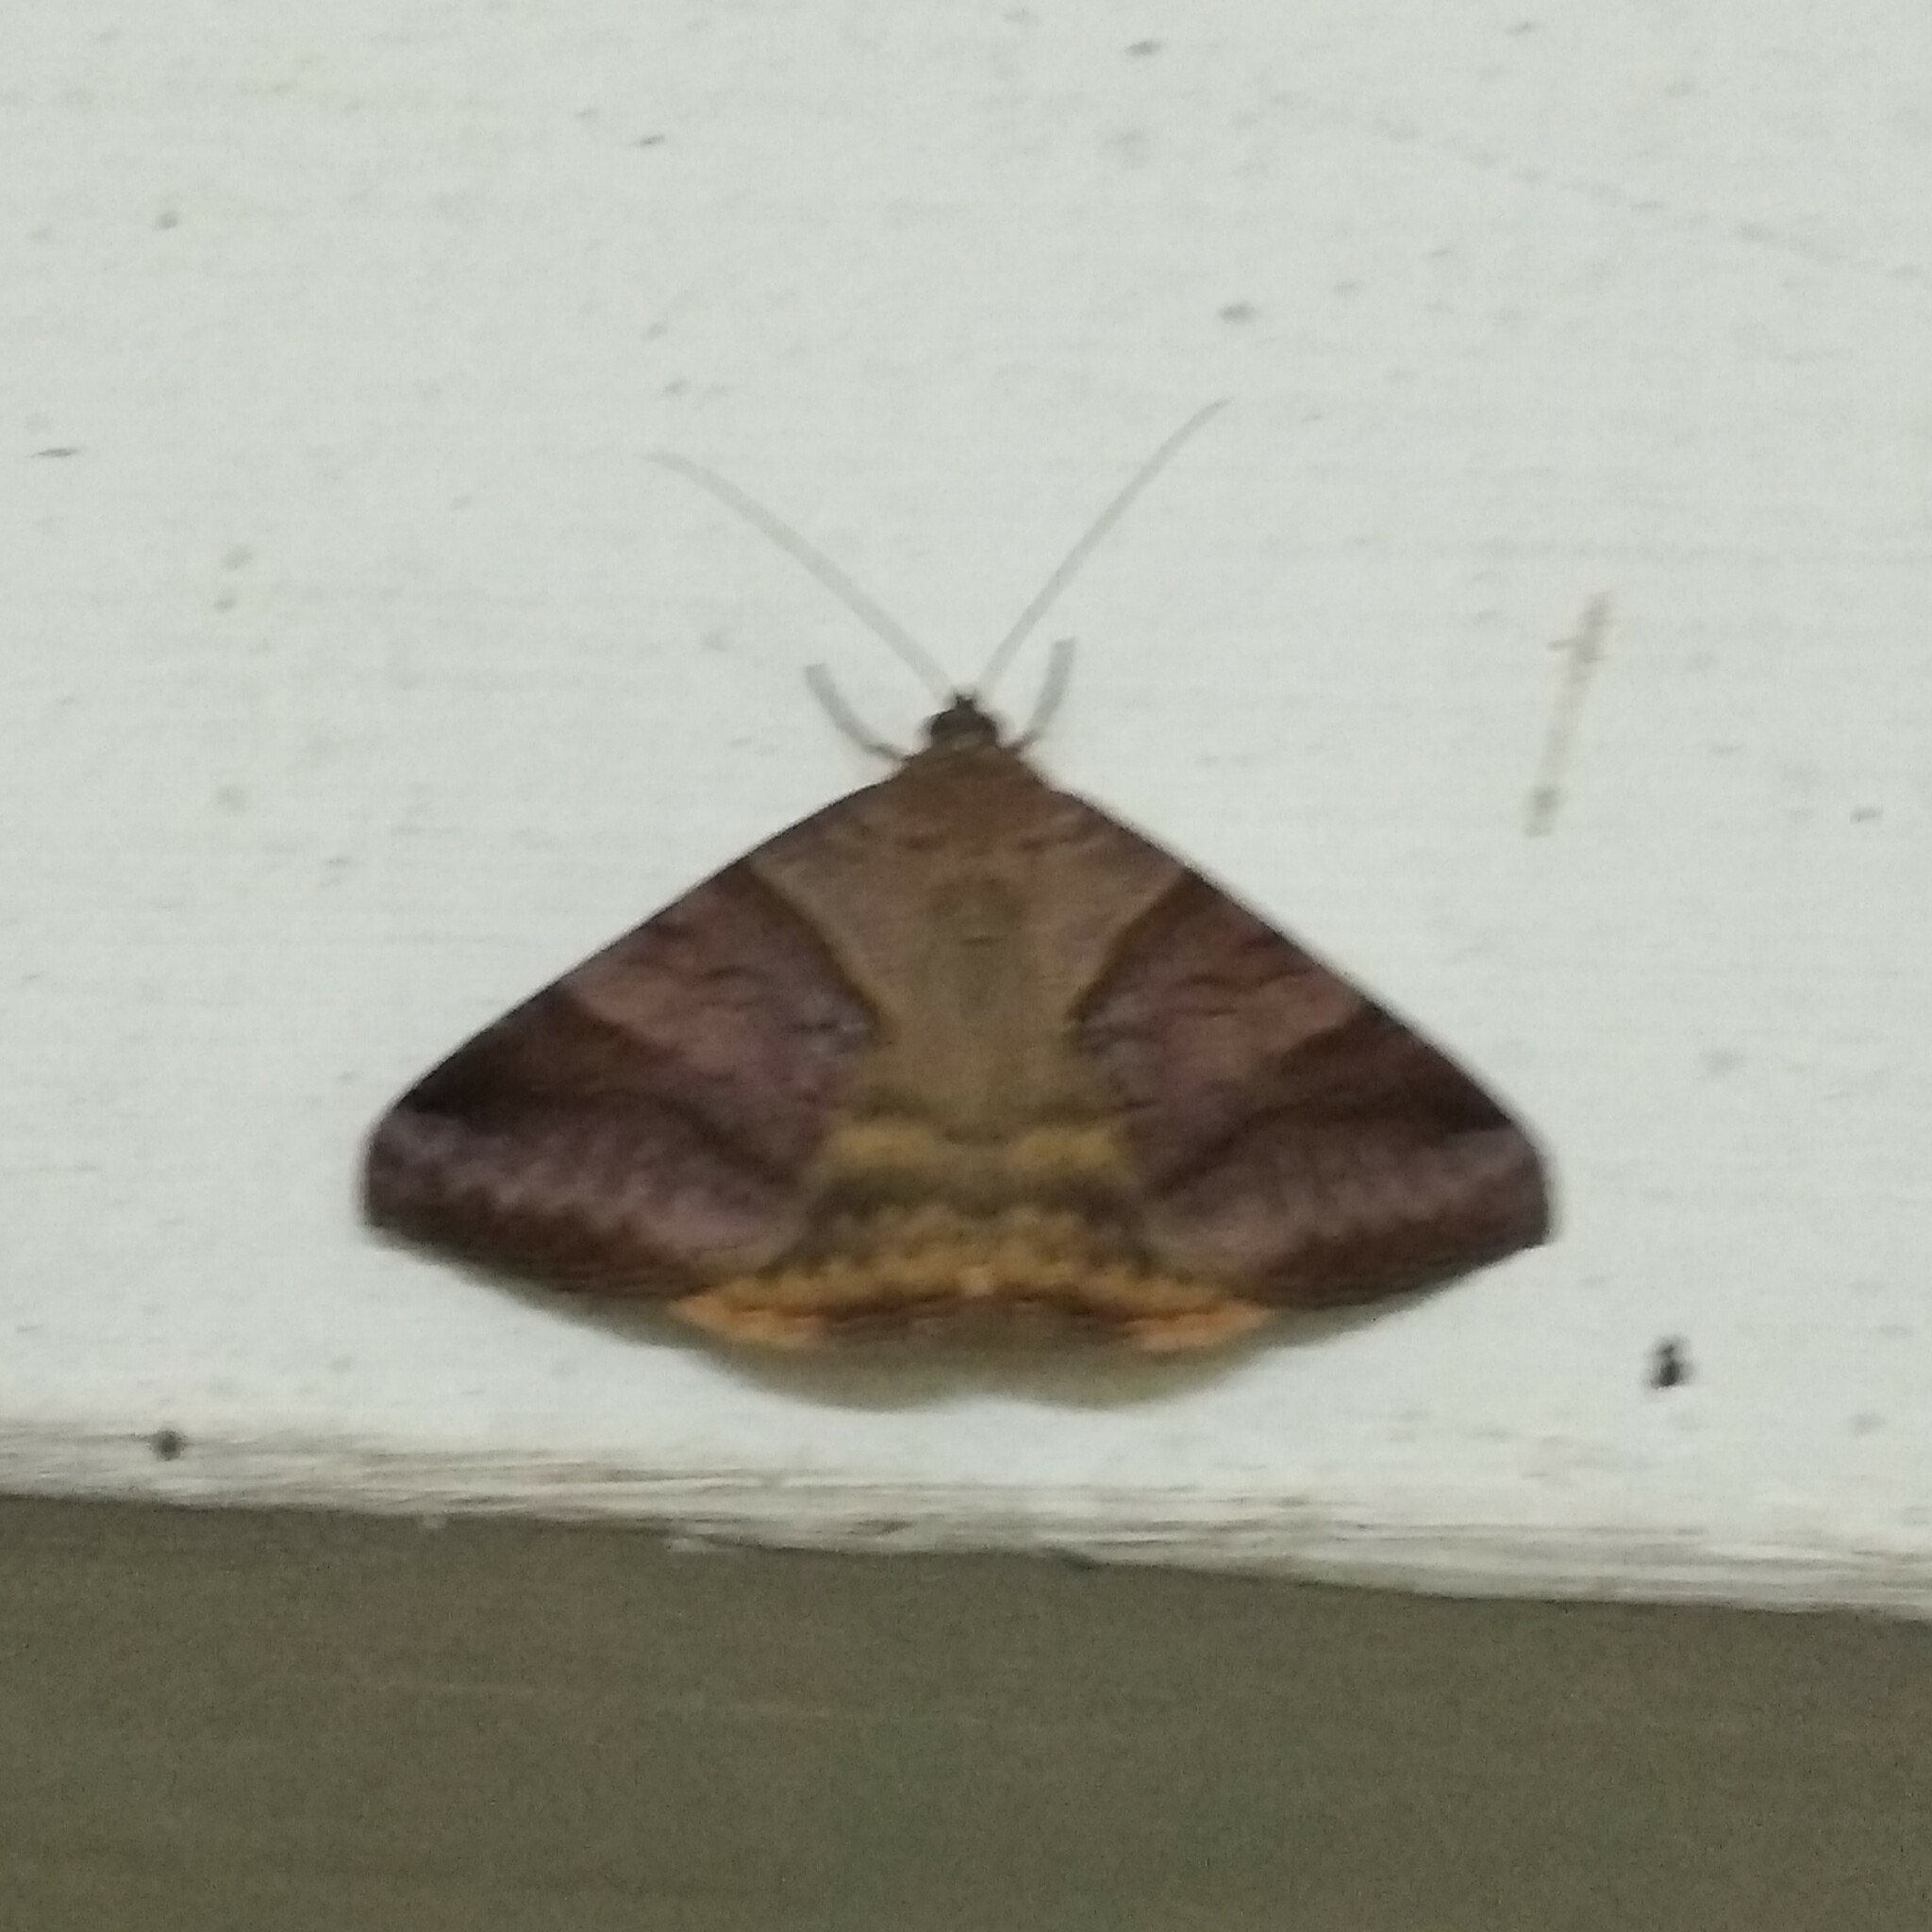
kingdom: Animalia
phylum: Arthropoda
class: Insecta
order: Lepidoptera
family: Erebidae
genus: Mocis
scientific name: Mocis undata
